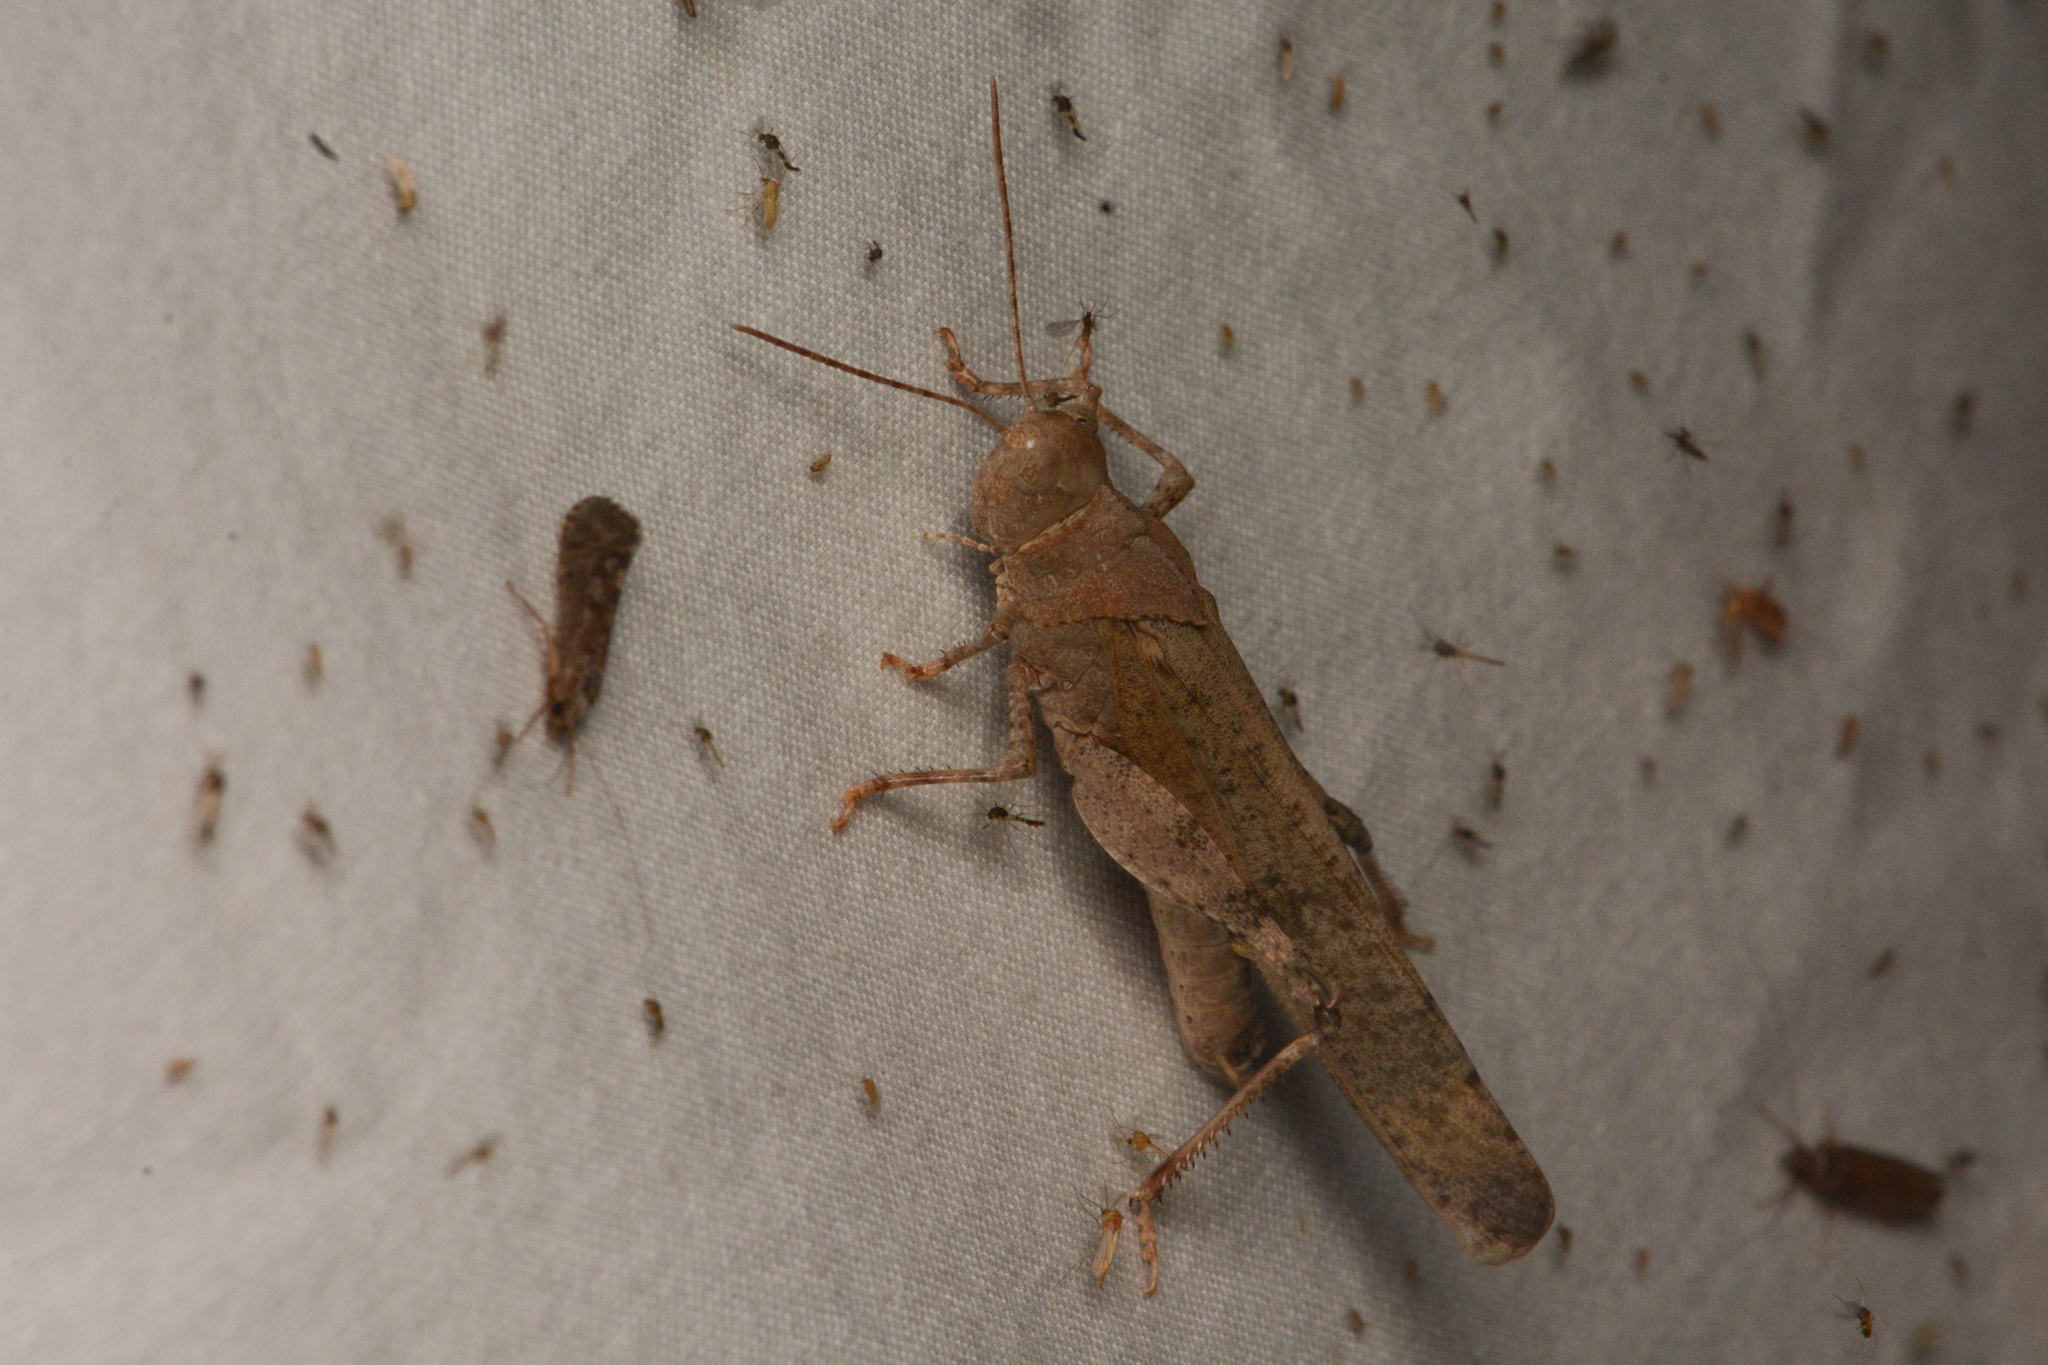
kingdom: Animalia
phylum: Arthropoda
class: Insecta
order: Orthoptera
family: Acrididae
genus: Dissosteira
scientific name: Dissosteira carolina
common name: Carolina grasshopper
